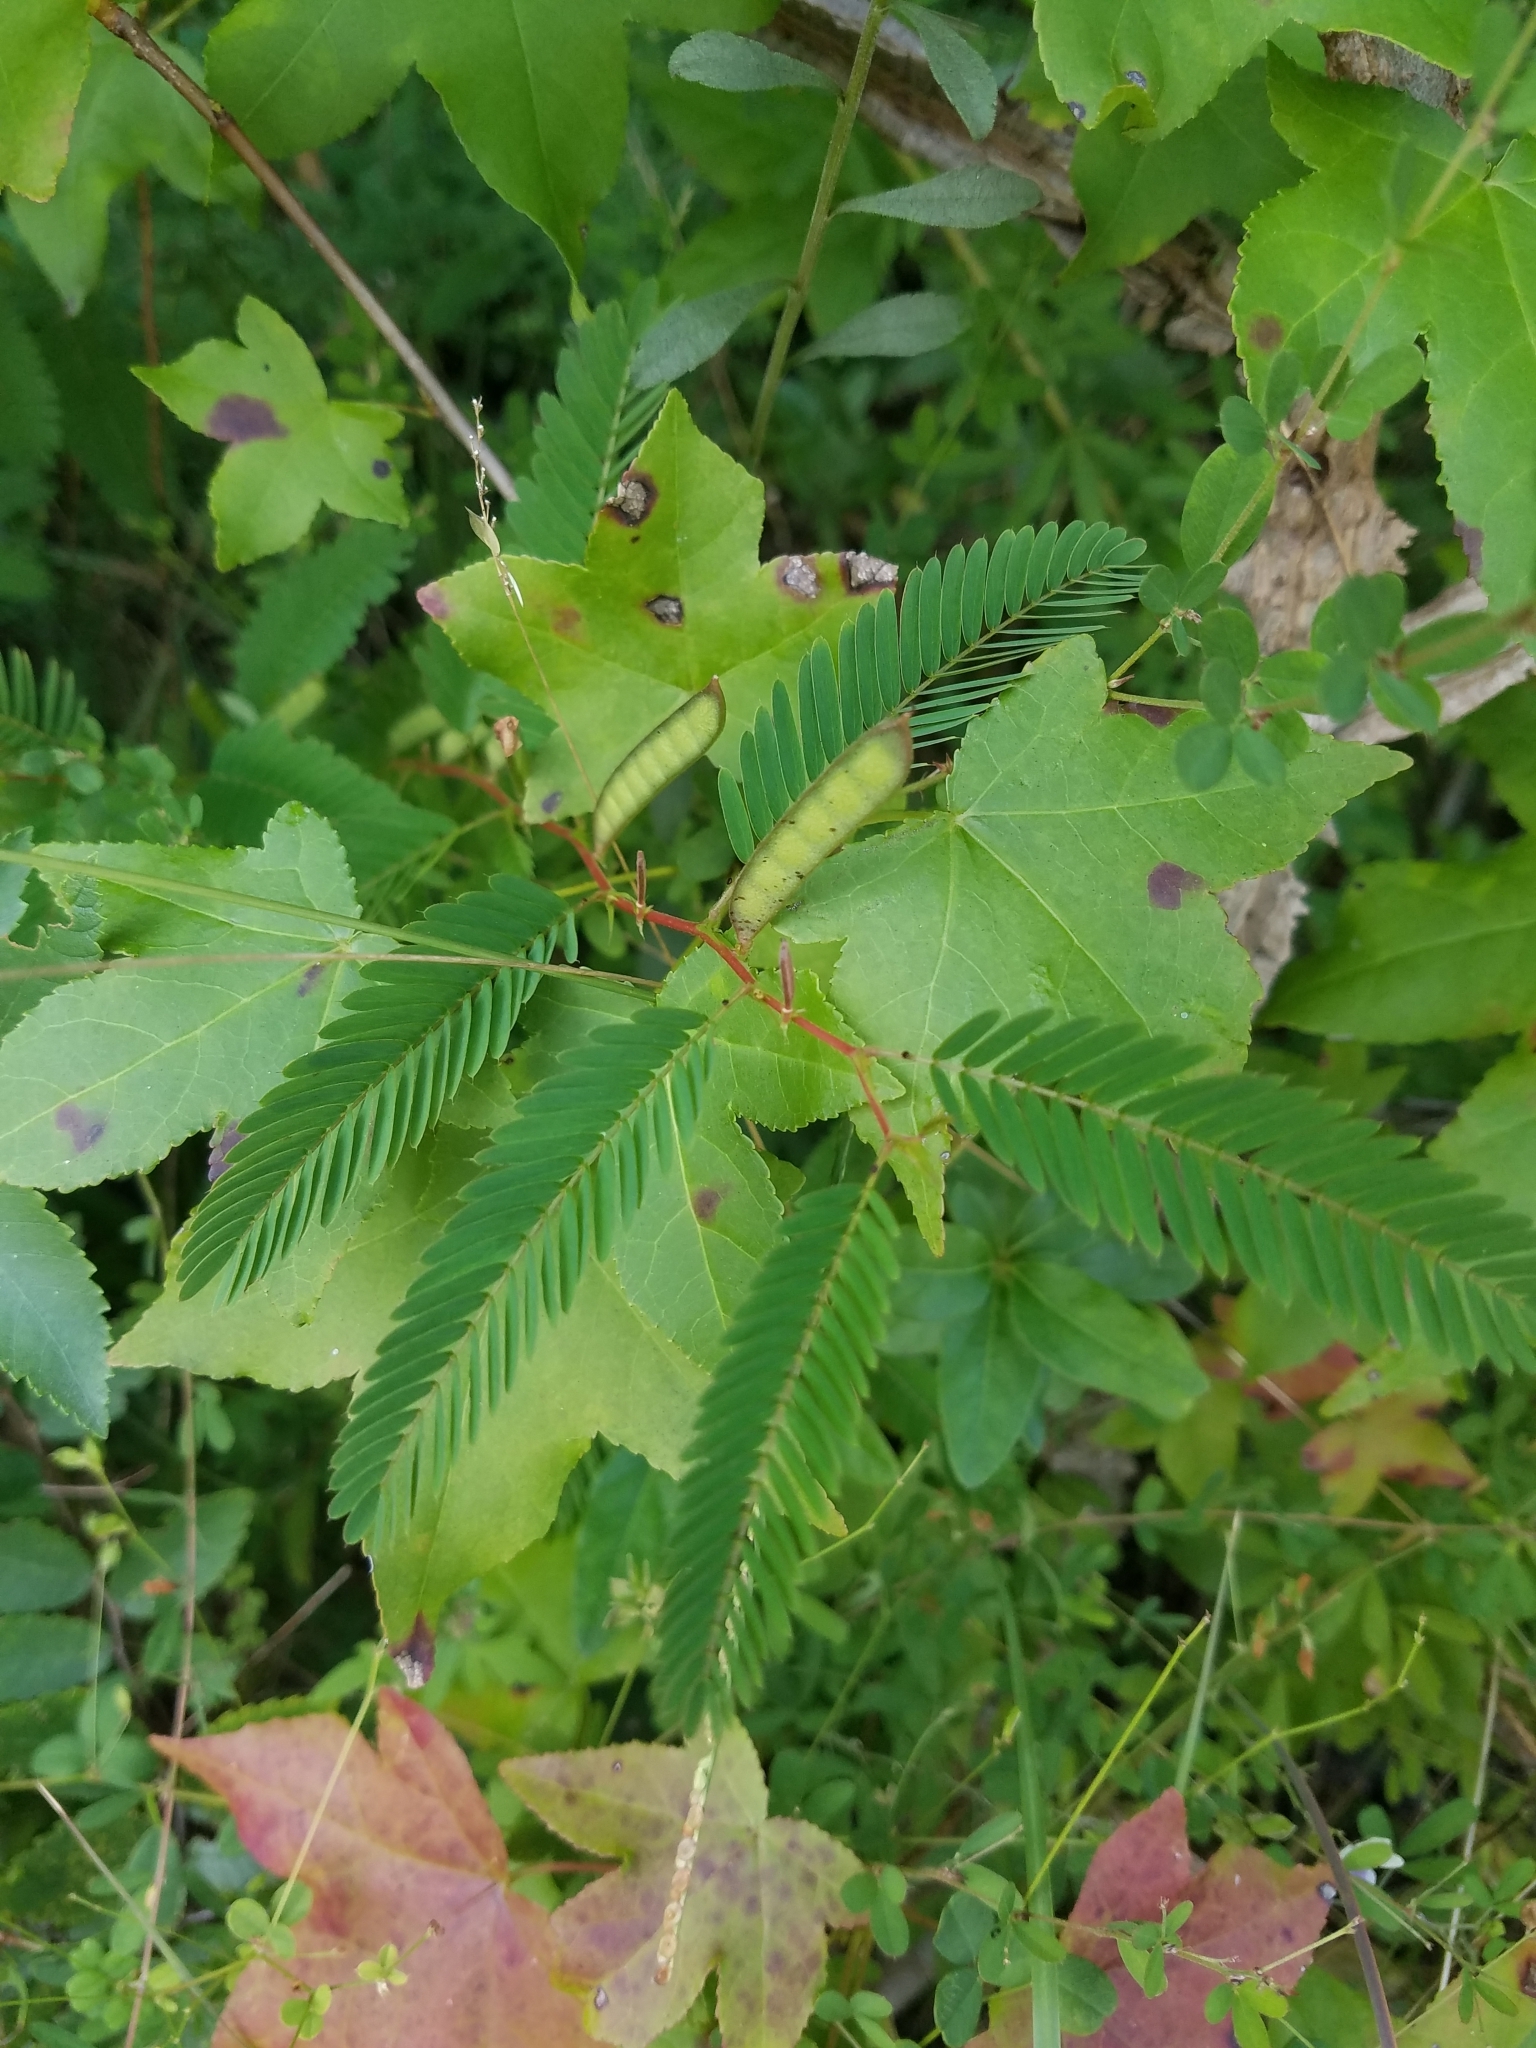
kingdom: Plantae
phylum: Tracheophyta
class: Magnoliopsida
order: Fabales
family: Fabaceae
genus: Chamaecrista
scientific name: Chamaecrista nictitans
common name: Sensitive cassia
